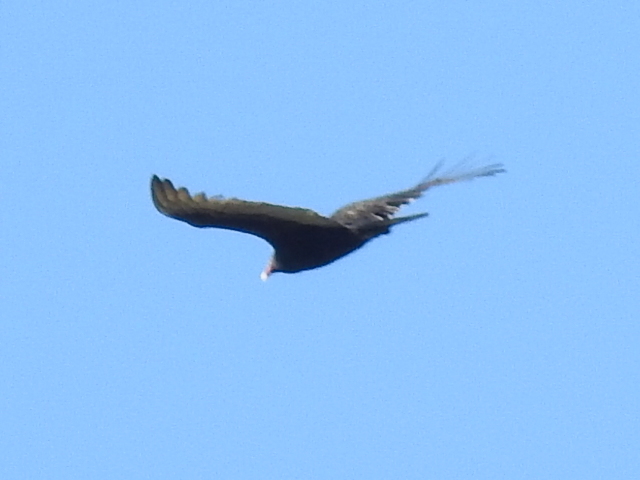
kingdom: Animalia
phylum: Chordata
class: Aves
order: Accipitriformes
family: Cathartidae
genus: Cathartes
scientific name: Cathartes aura
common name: Turkey vulture
